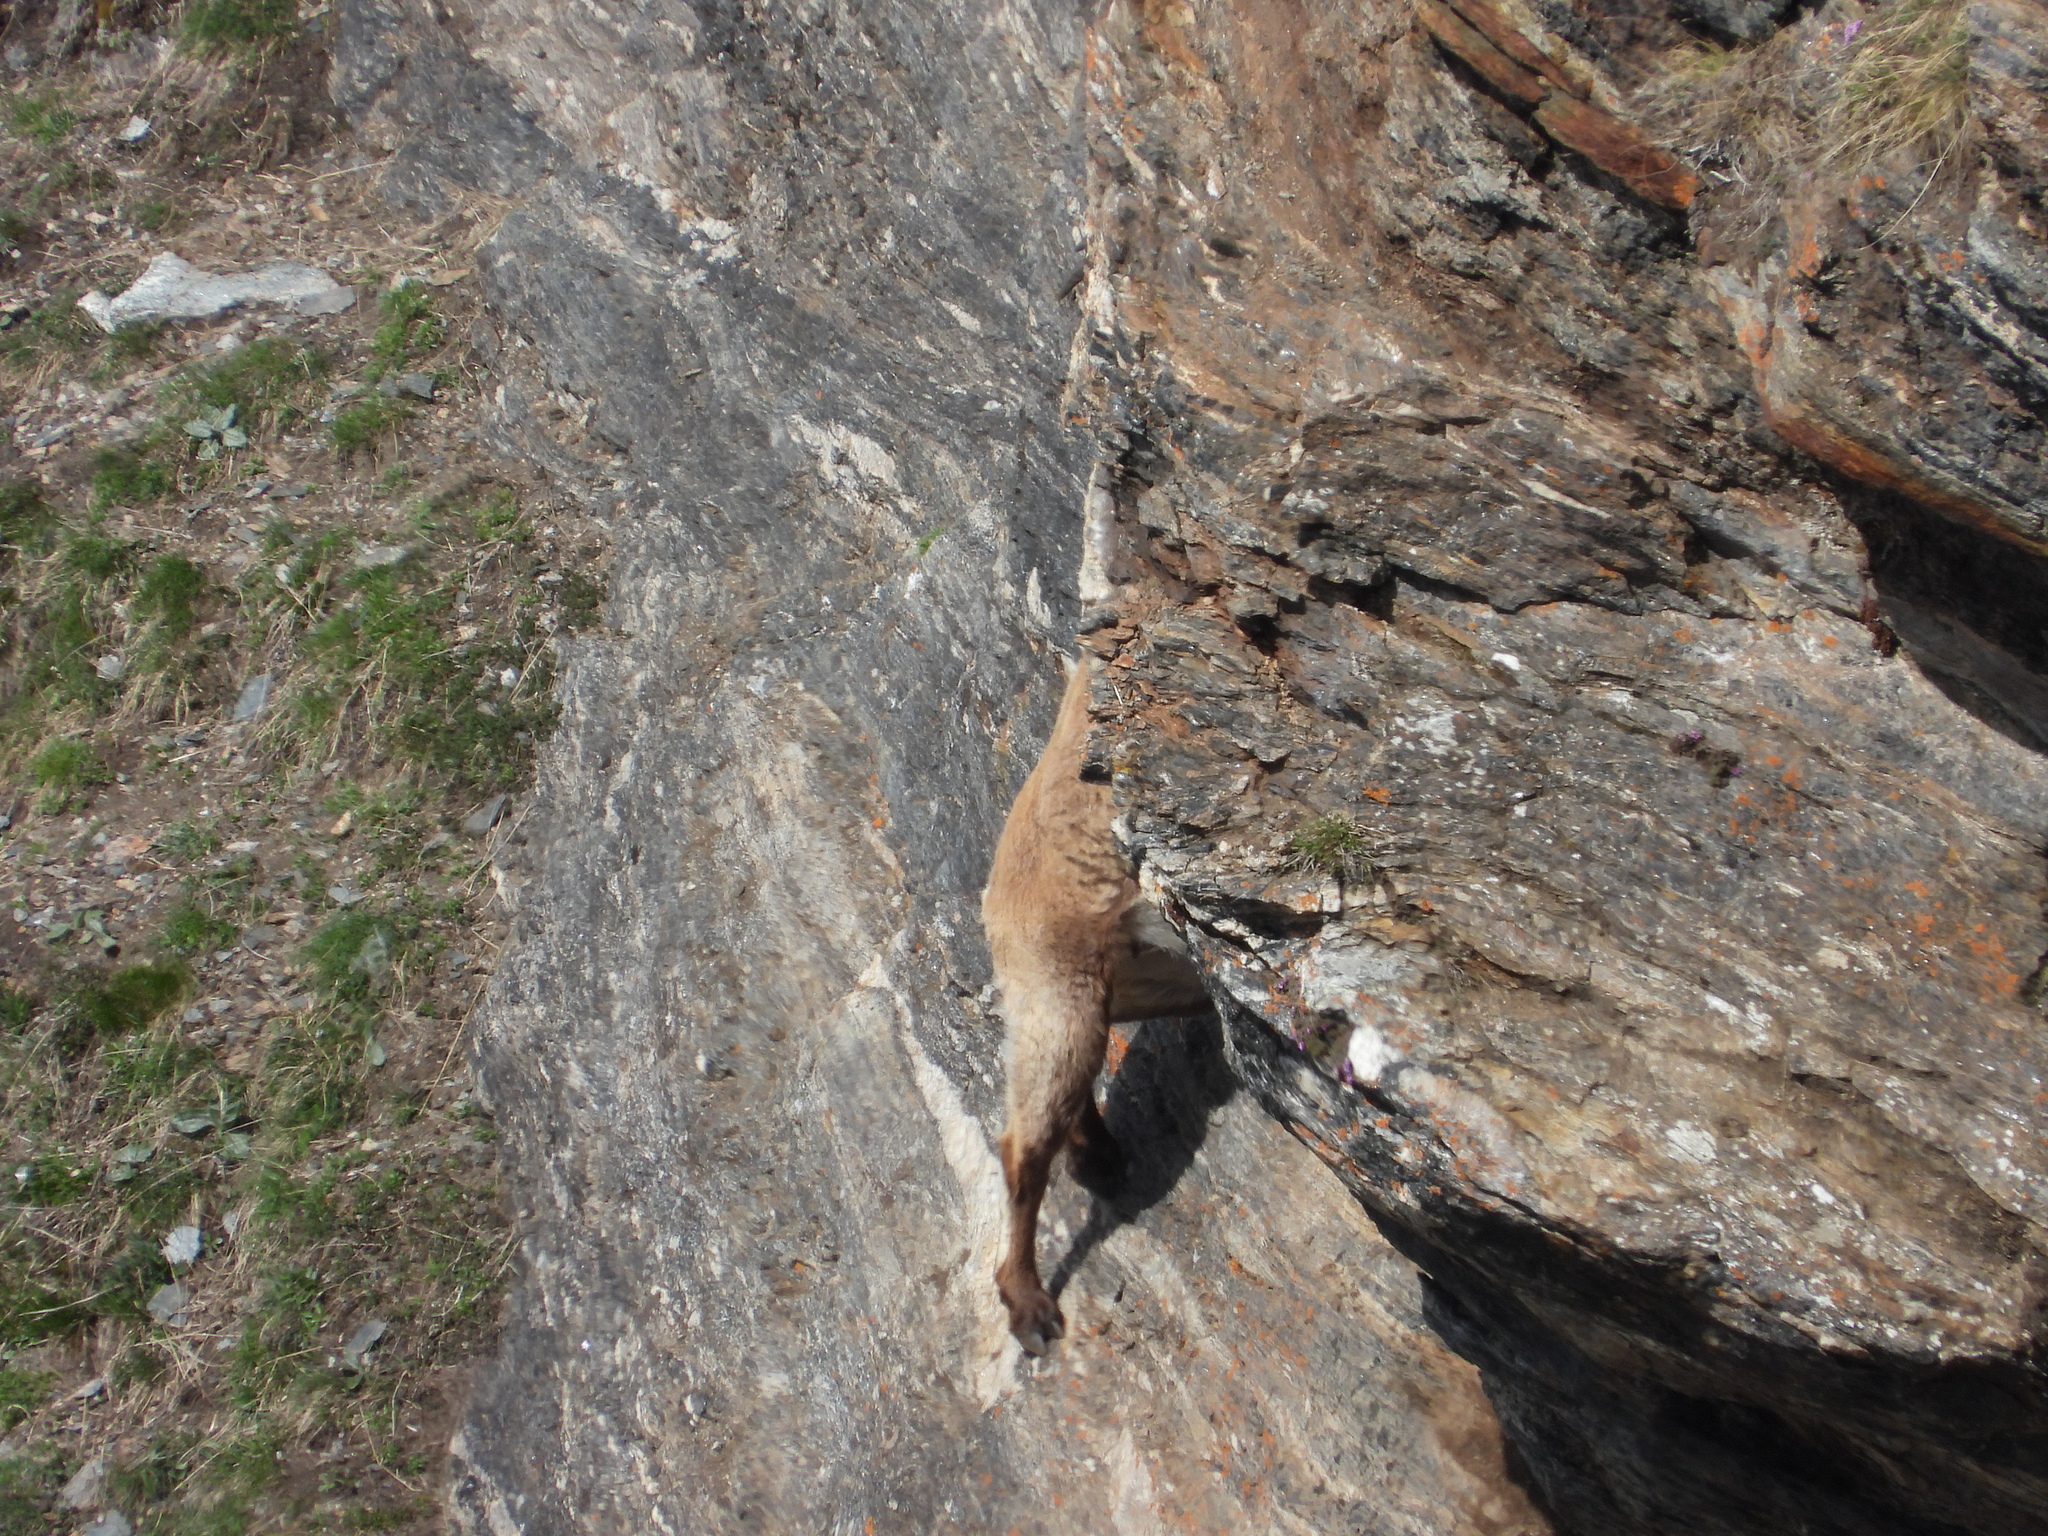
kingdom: Animalia
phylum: Chordata
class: Mammalia
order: Artiodactyla
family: Bovidae
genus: Capra
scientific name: Capra ibex
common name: Alpine ibex
